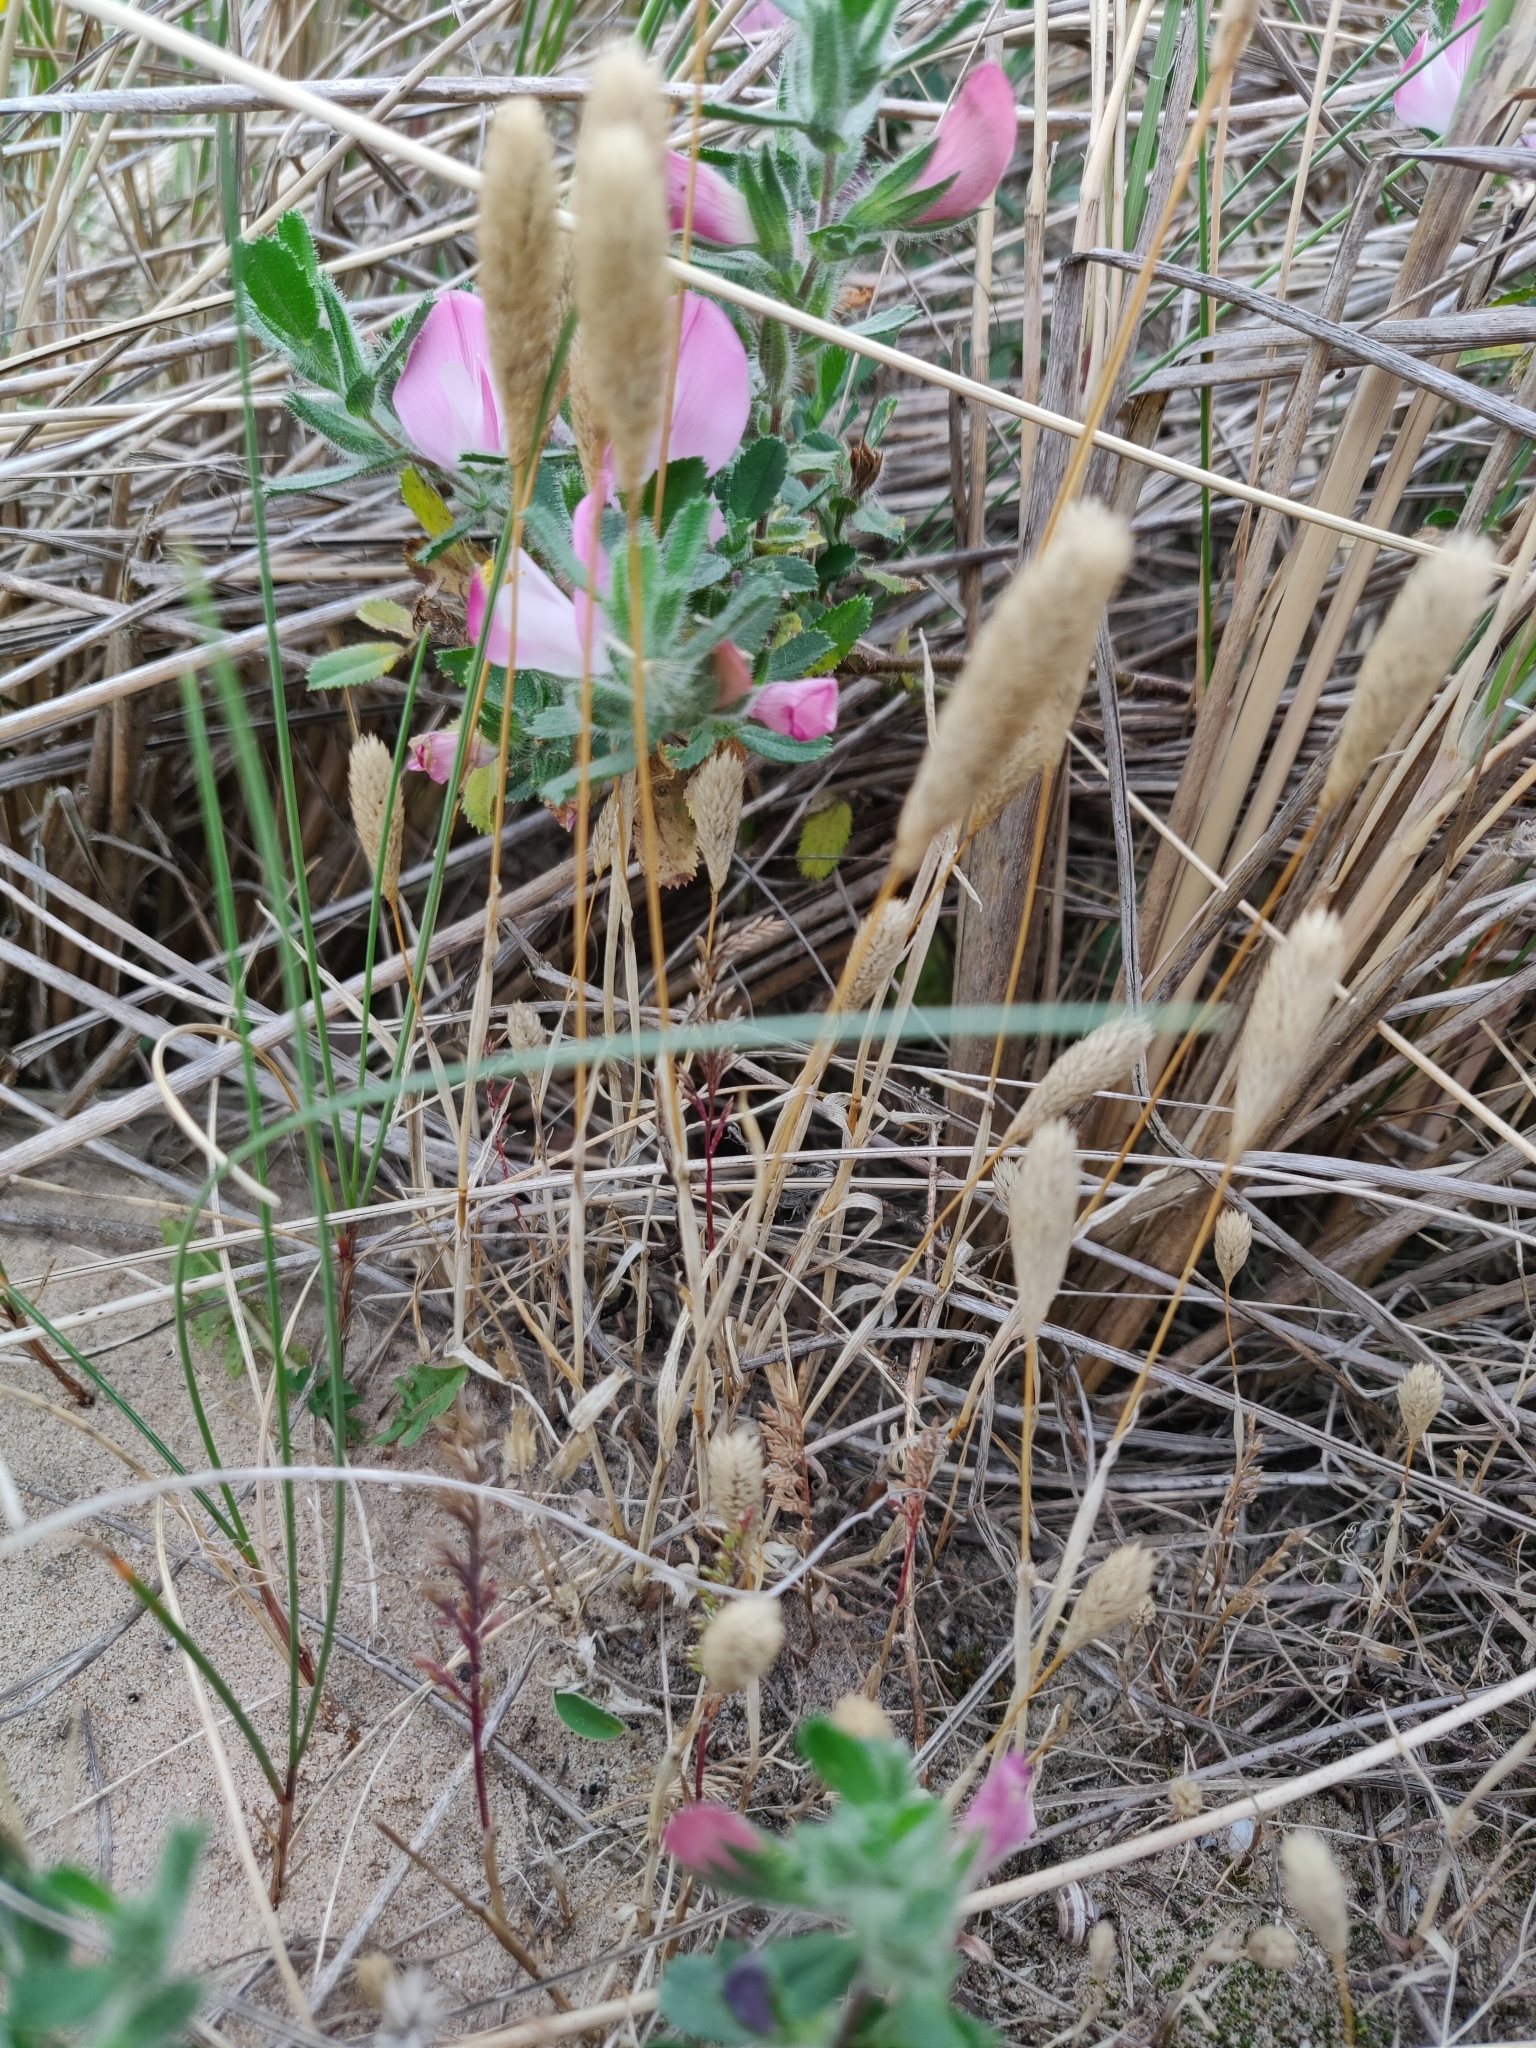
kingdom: Plantae
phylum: Tracheophyta
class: Liliopsida
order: Poales
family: Poaceae
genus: Phleum
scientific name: Phleum arenarium
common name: Sand cat's-tail
